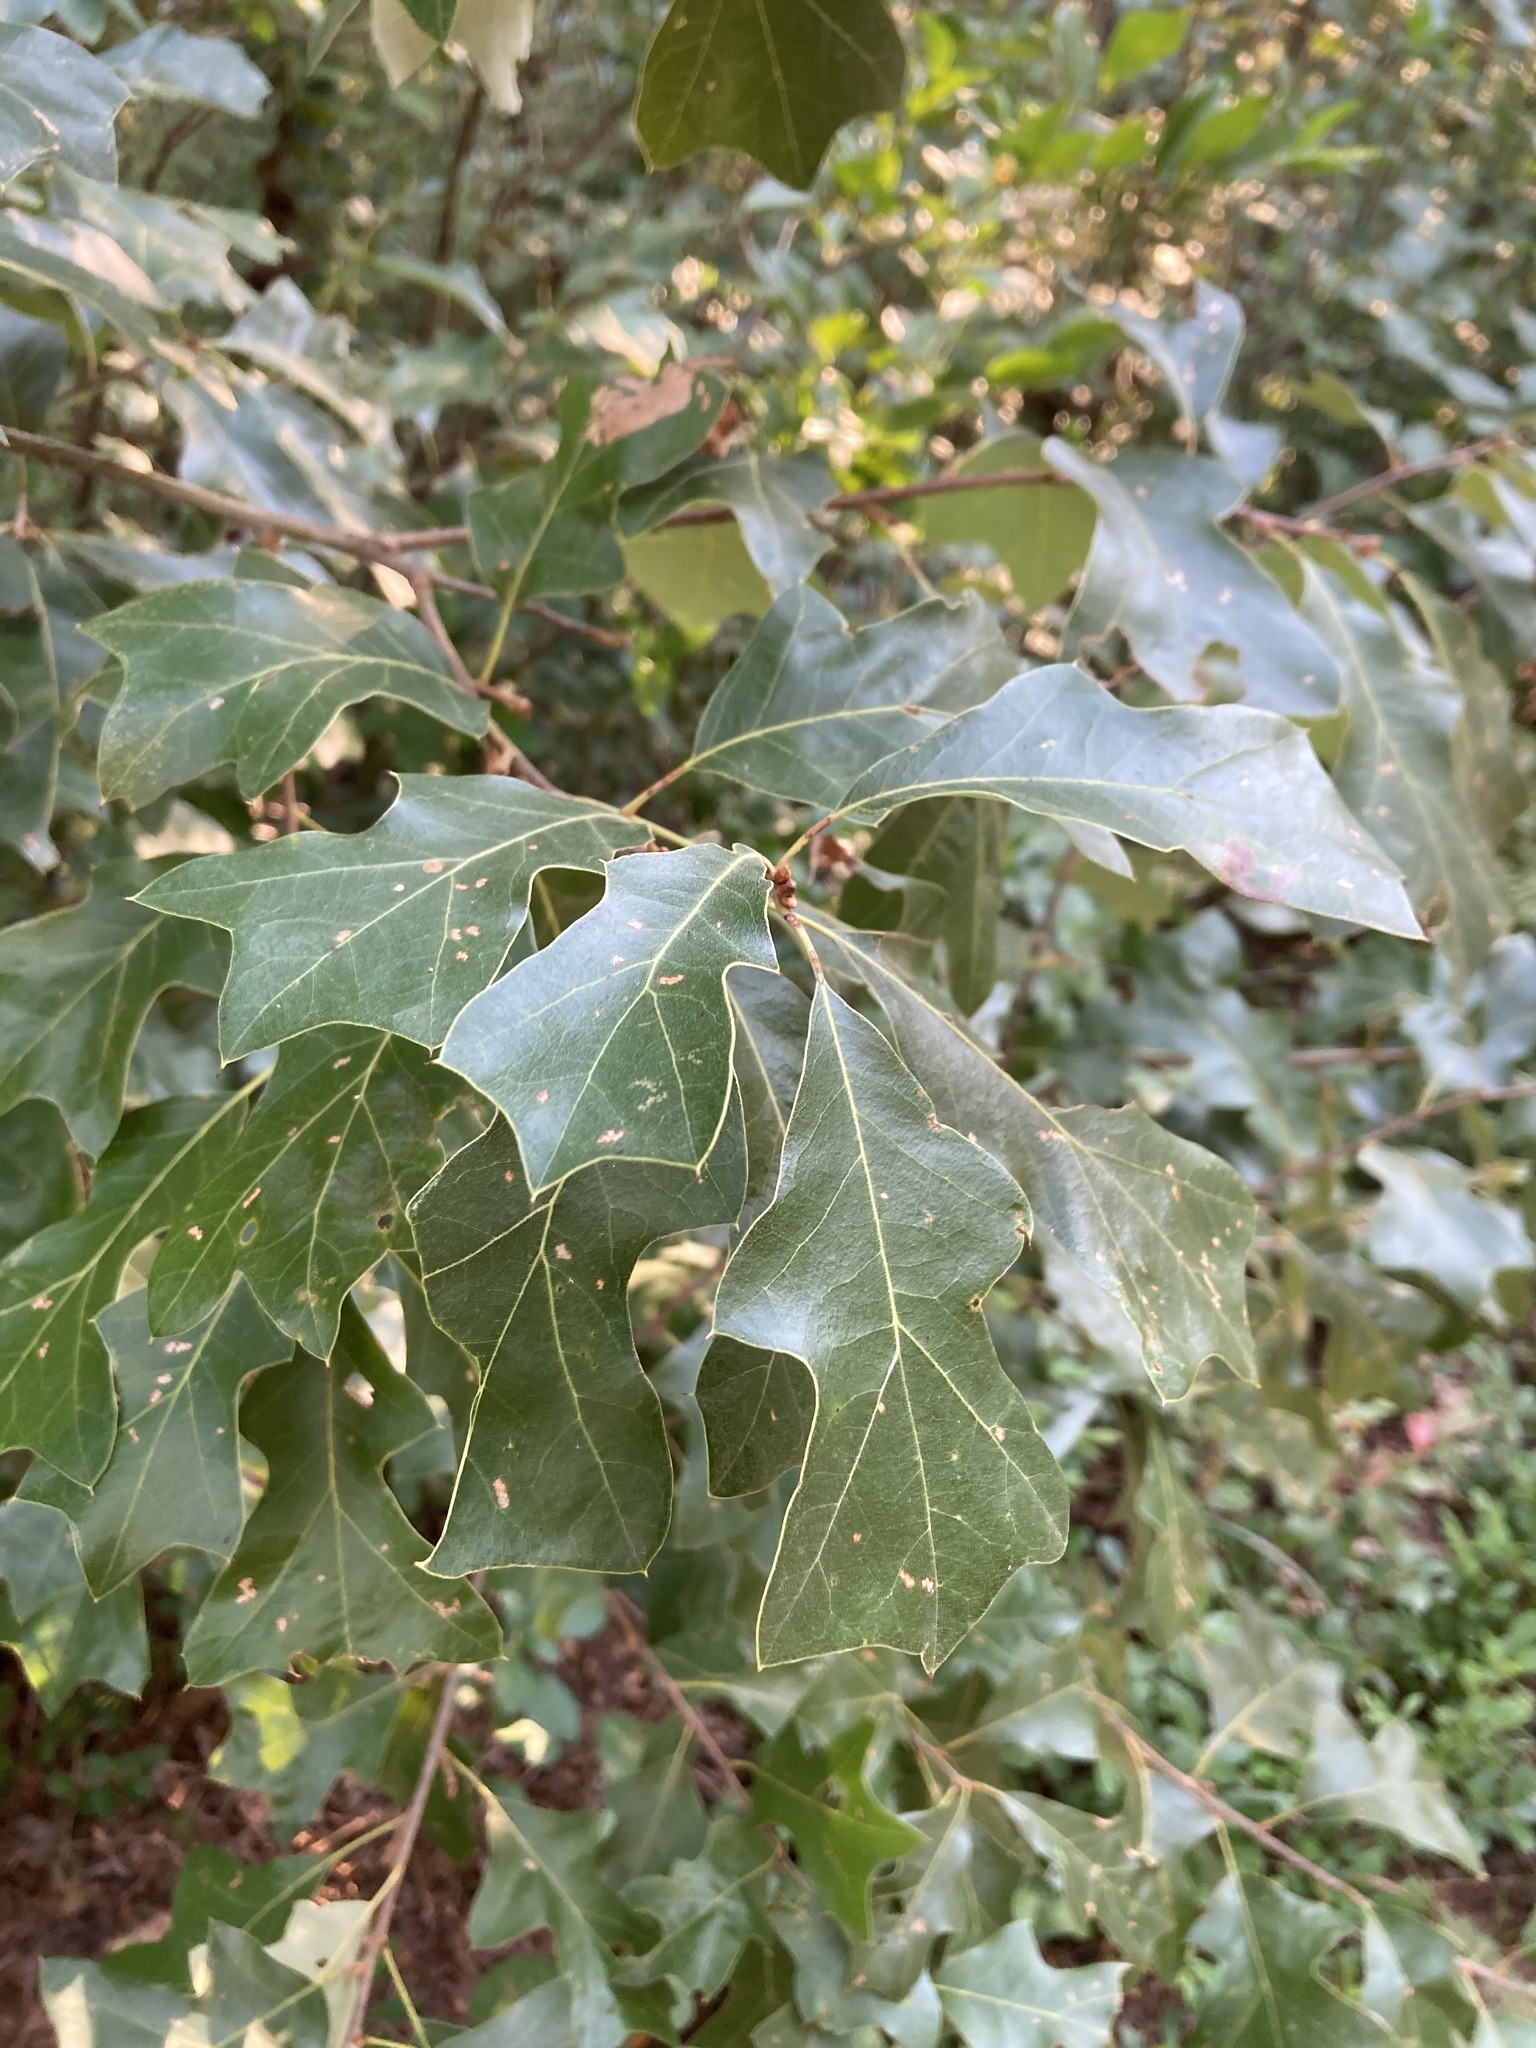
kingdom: Plantae
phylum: Tracheophyta
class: Magnoliopsida
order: Fagales
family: Fagaceae
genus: Quercus
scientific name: Quercus ilicifolia
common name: Bear oak
